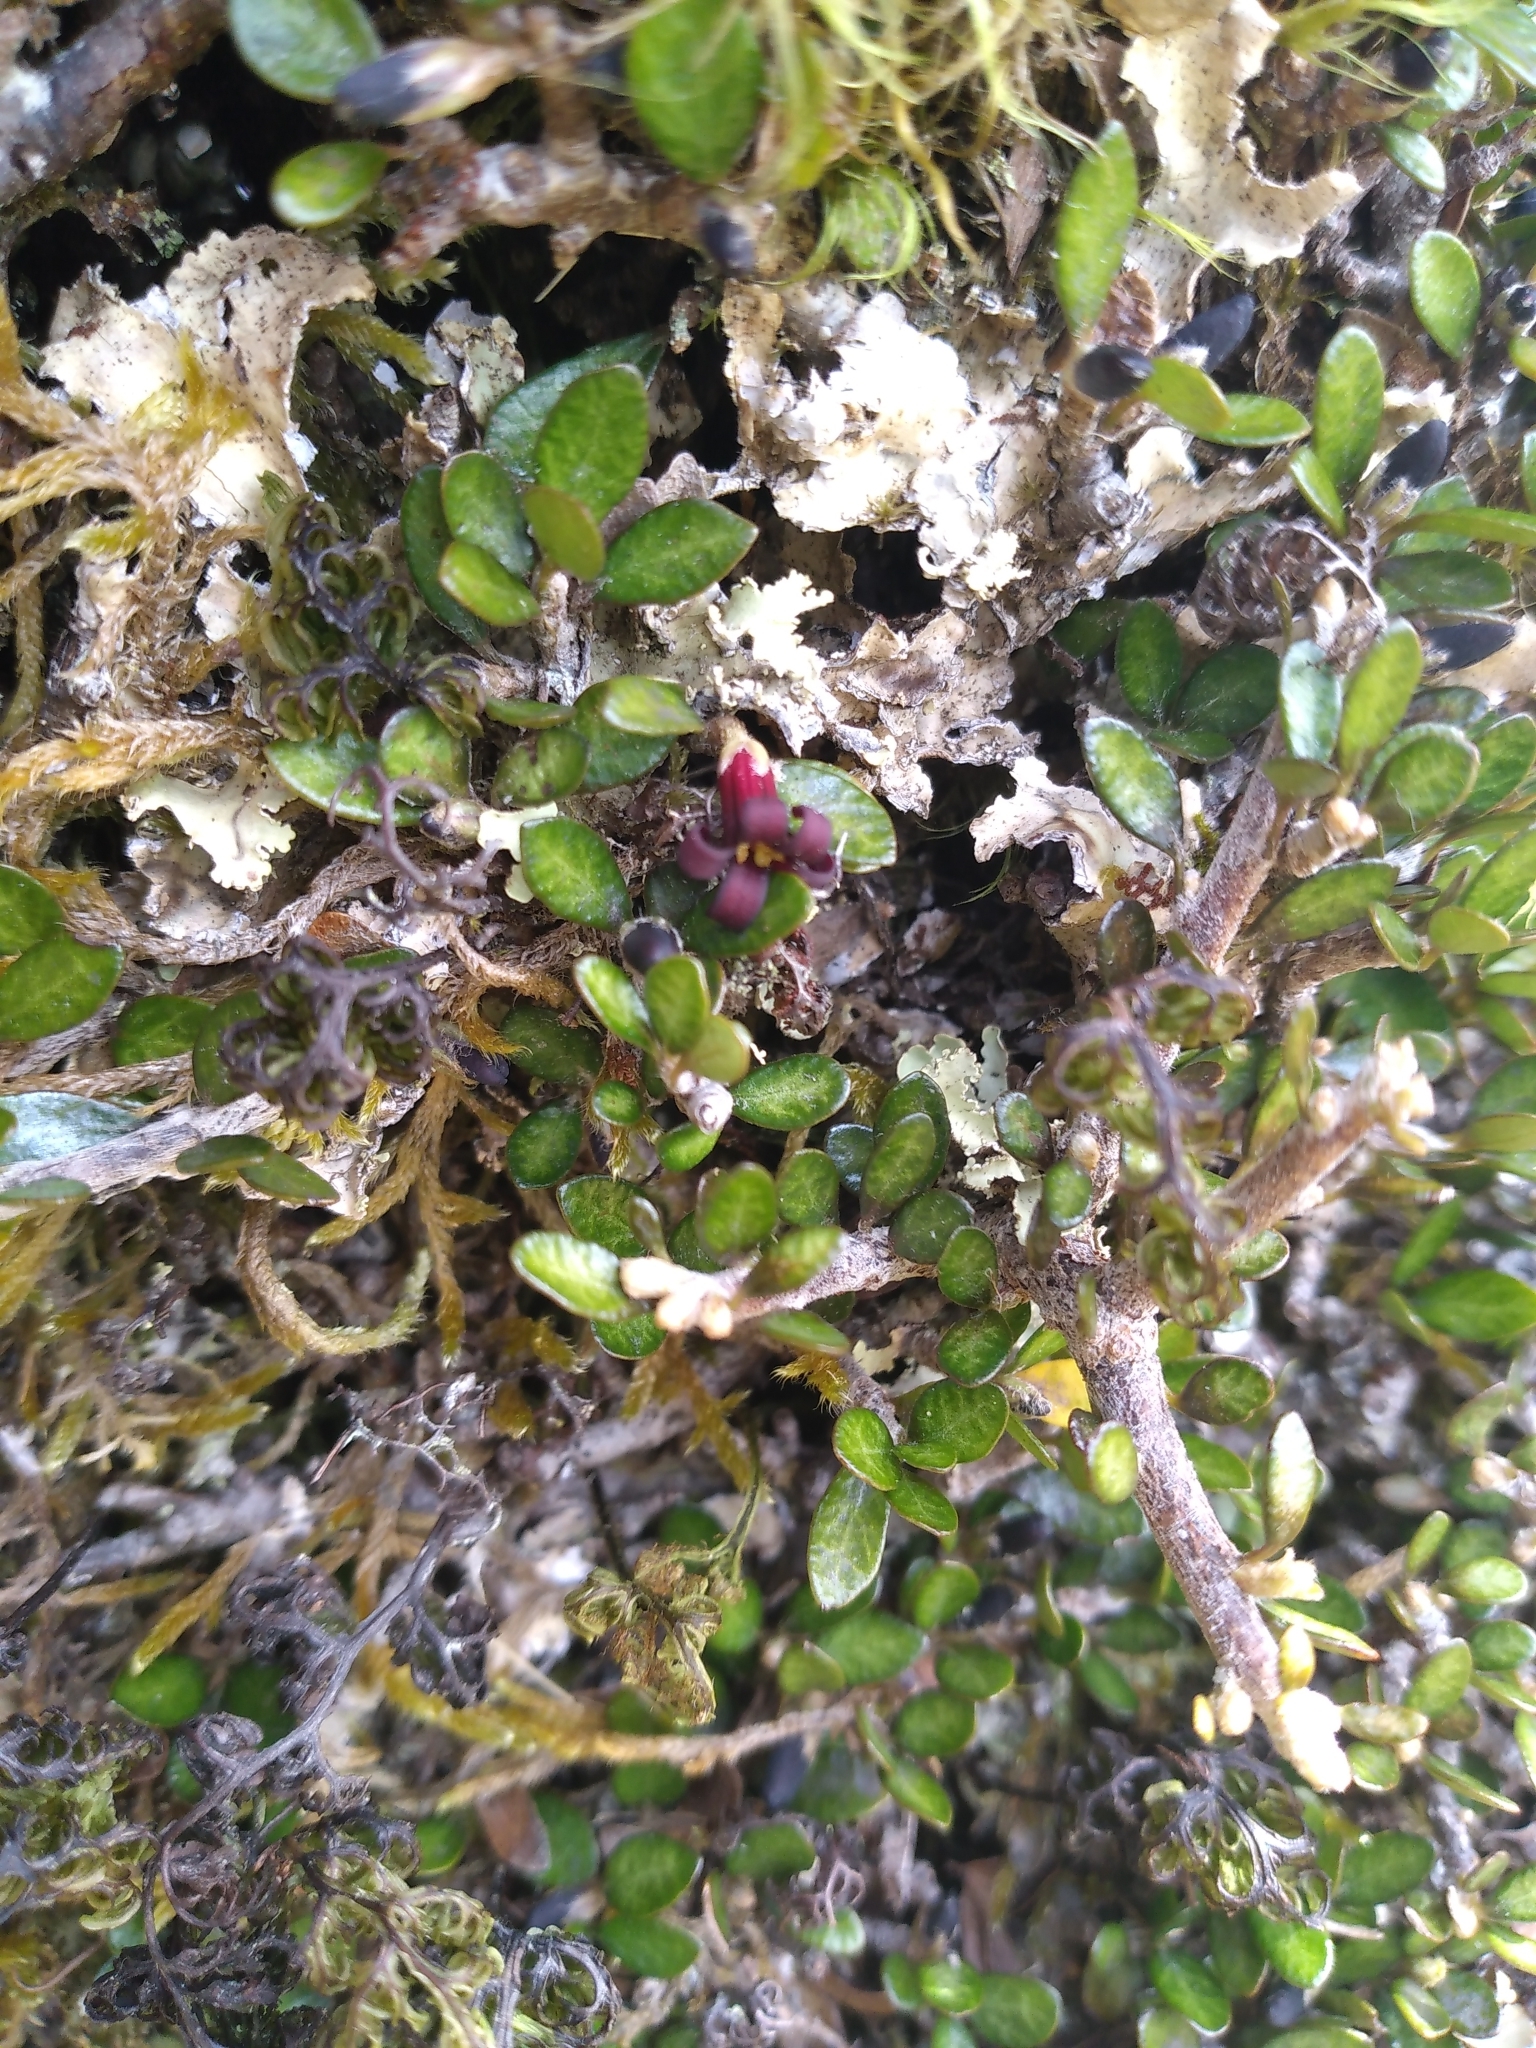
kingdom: Plantae
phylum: Tracheophyta
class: Magnoliopsida
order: Apiales
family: Pittosporaceae
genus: Pittosporum
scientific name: Pittosporum rigidum
